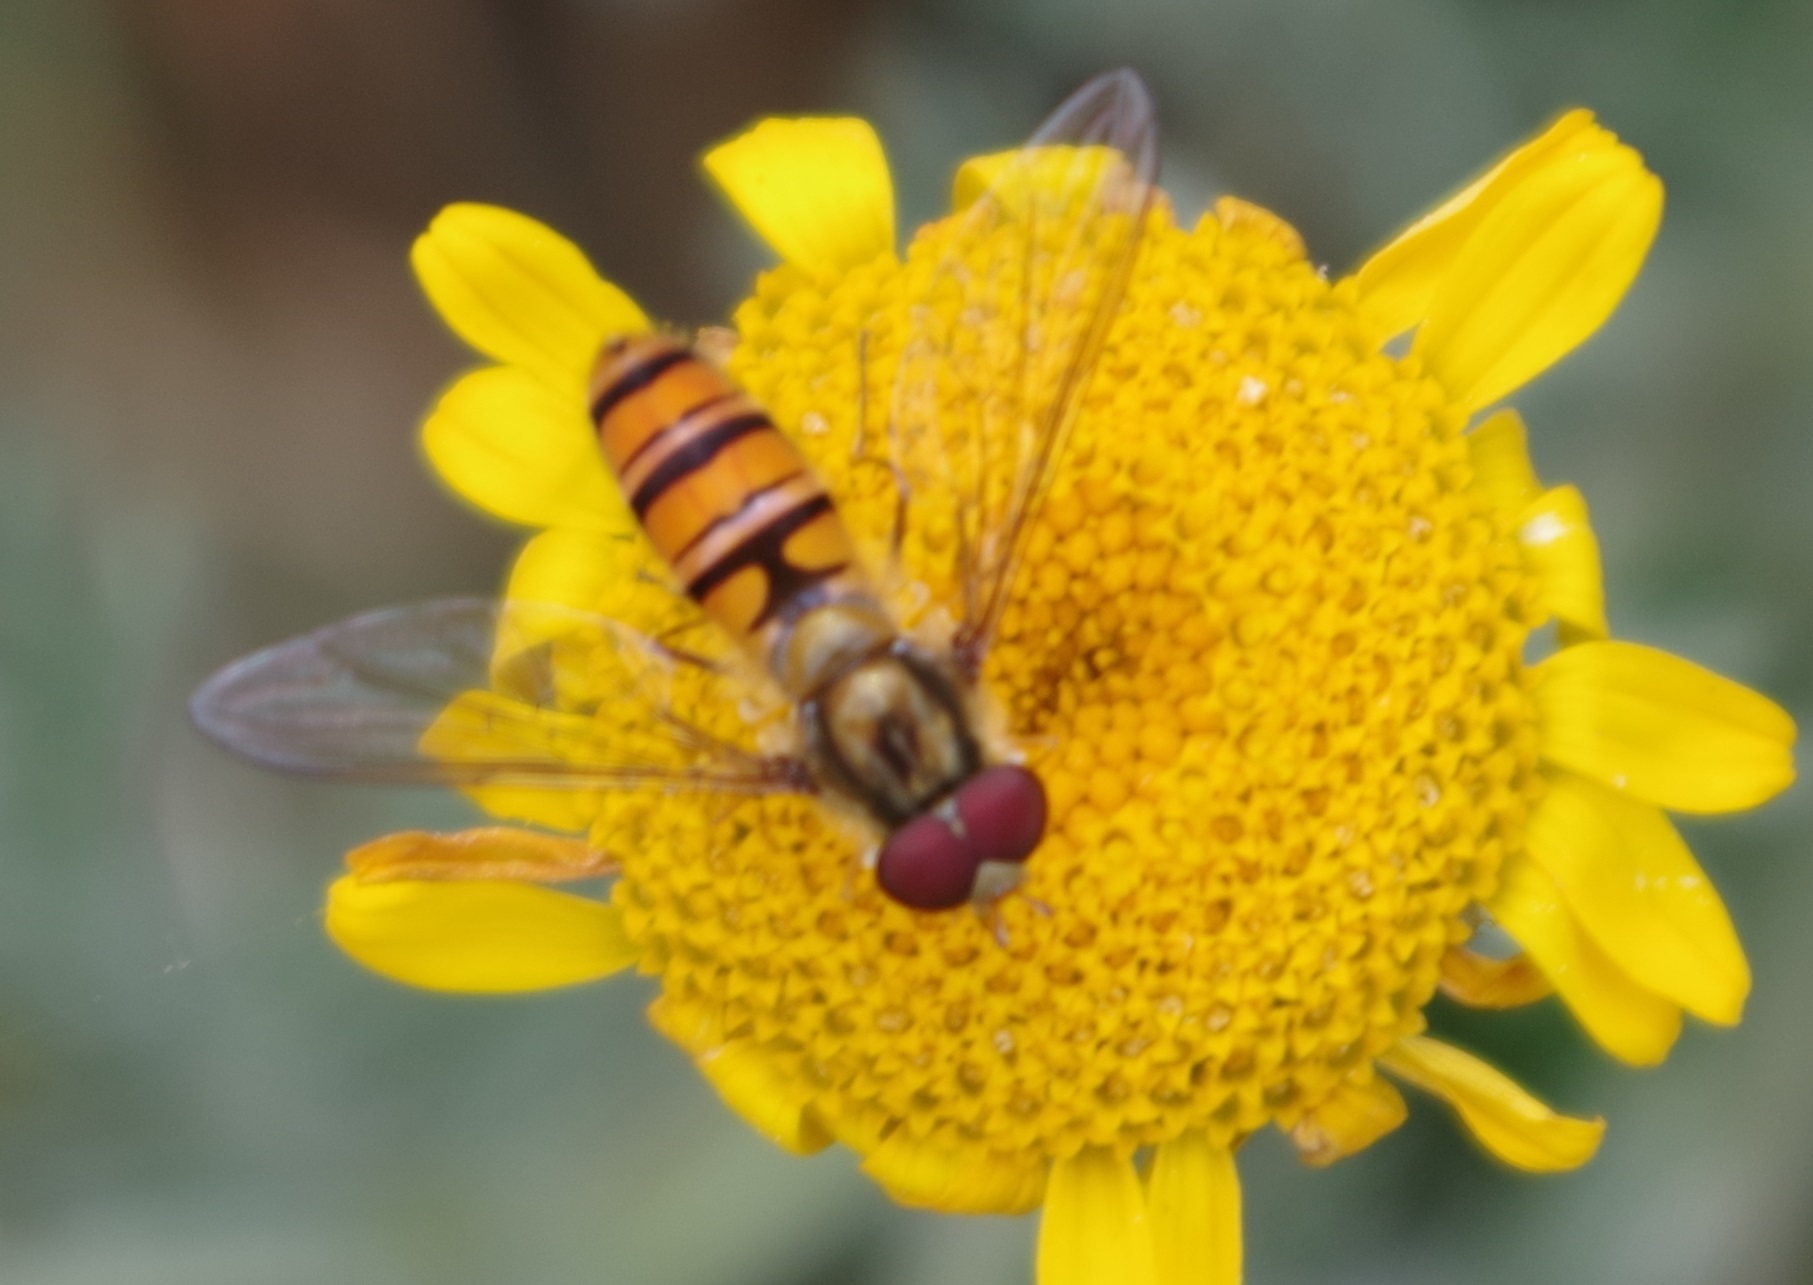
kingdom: Animalia
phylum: Arthropoda
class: Insecta
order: Diptera
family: Syrphidae
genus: Episyrphus
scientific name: Episyrphus balteatus
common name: Marmalade hoverfly
